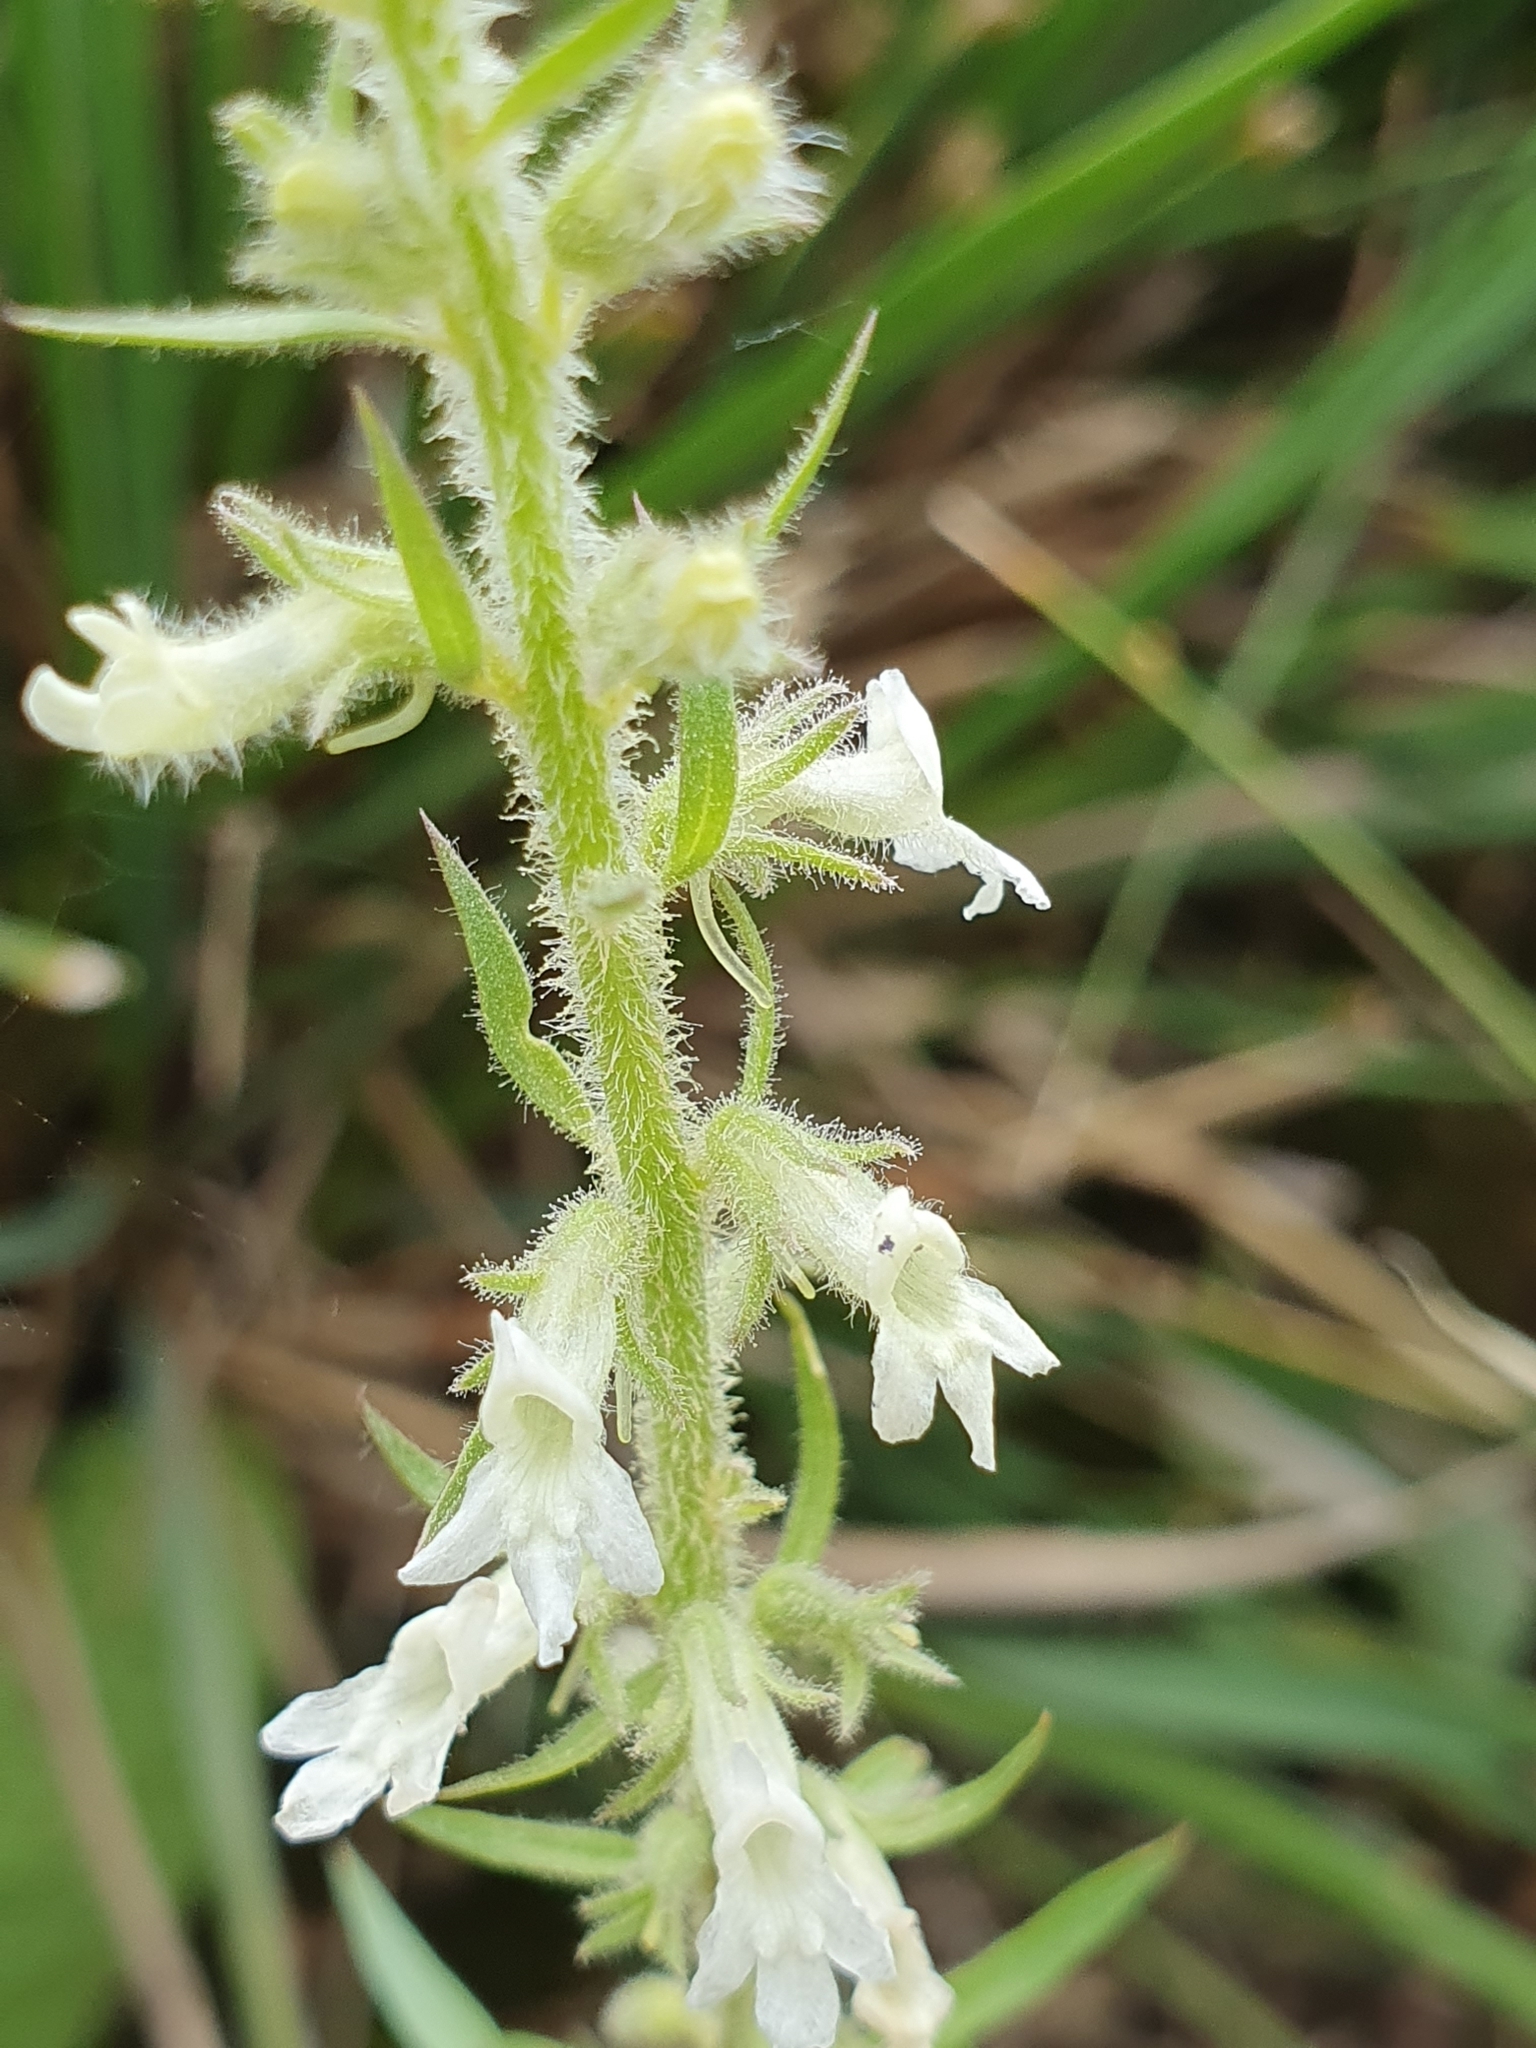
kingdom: Plantae
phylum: Tracheophyta
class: Magnoliopsida
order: Lamiales
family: Plantaginaceae
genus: Anarrhinum
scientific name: Anarrhinum pedatum
